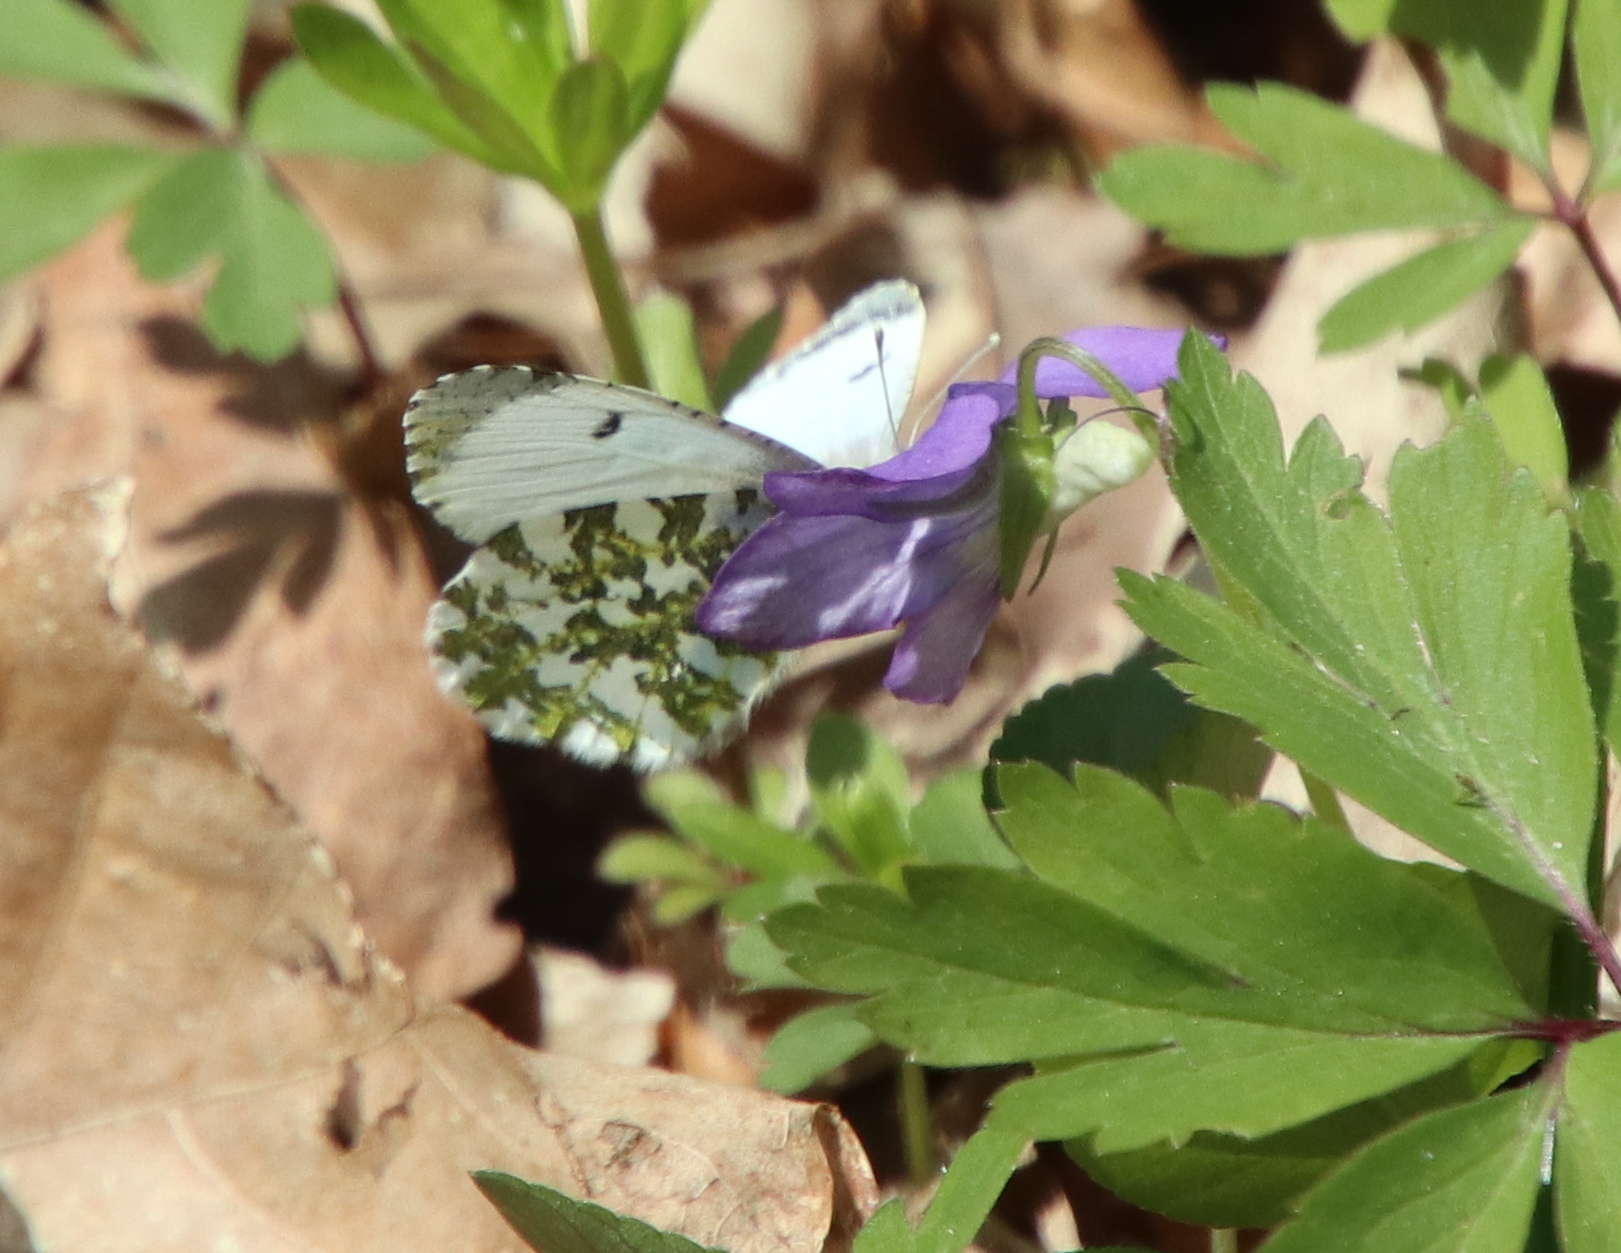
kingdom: Animalia
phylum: Arthropoda
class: Insecta
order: Lepidoptera
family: Pieridae
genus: Anthocharis
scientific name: Anthocharis cardamines
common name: Orange-tip
